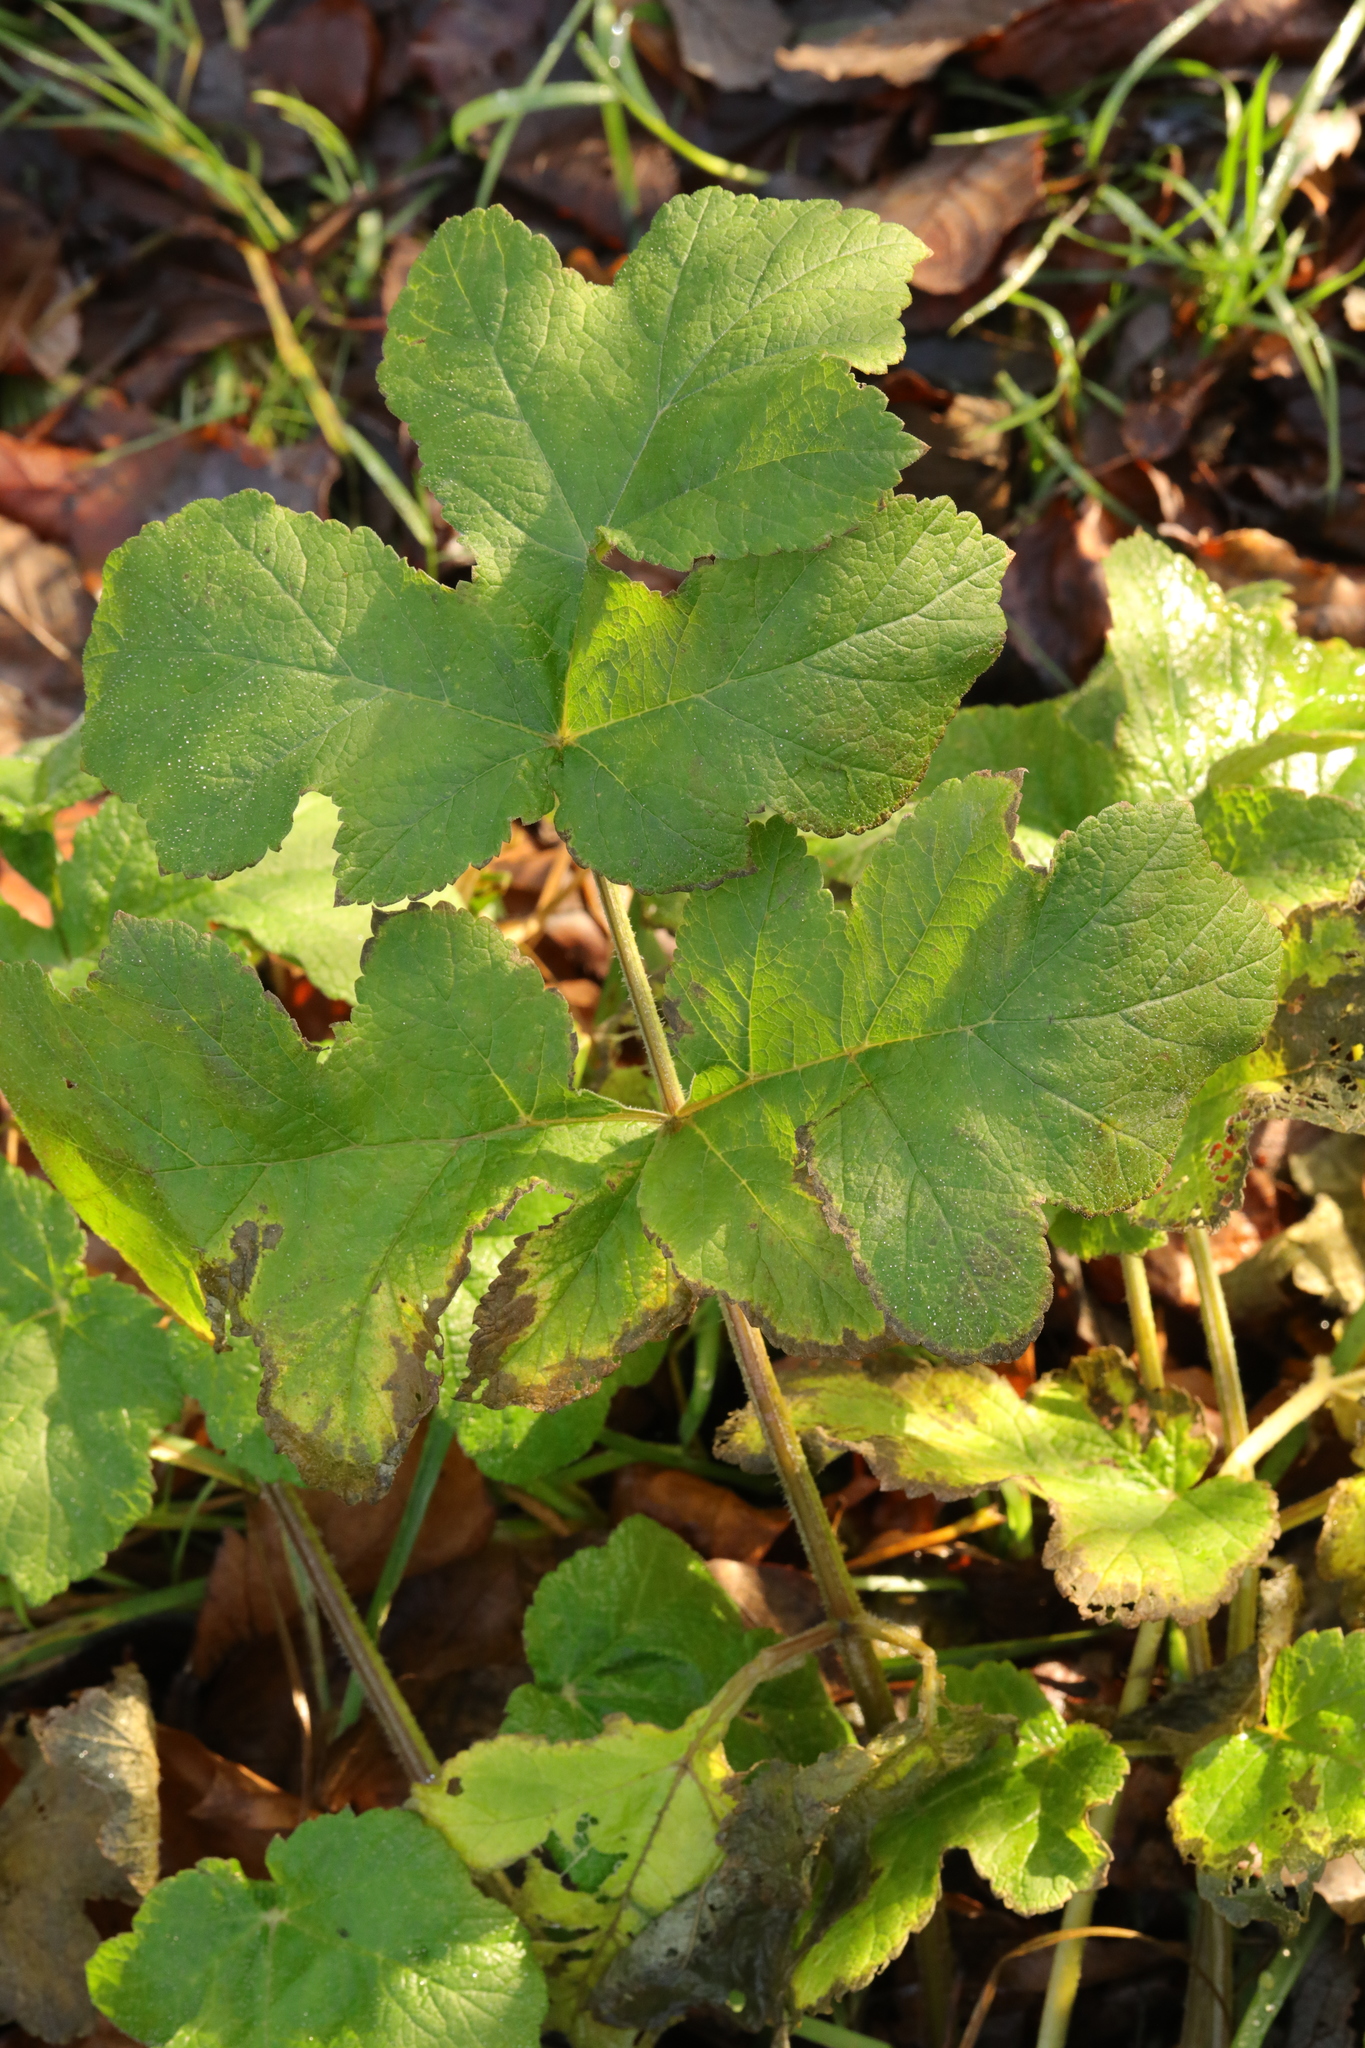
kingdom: Plantae
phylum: Tracheophyta
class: Magnoliopsida
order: Apiales
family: Apiaceae
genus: Heracleum
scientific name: Heracleum sphondylium
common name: Hogweed
